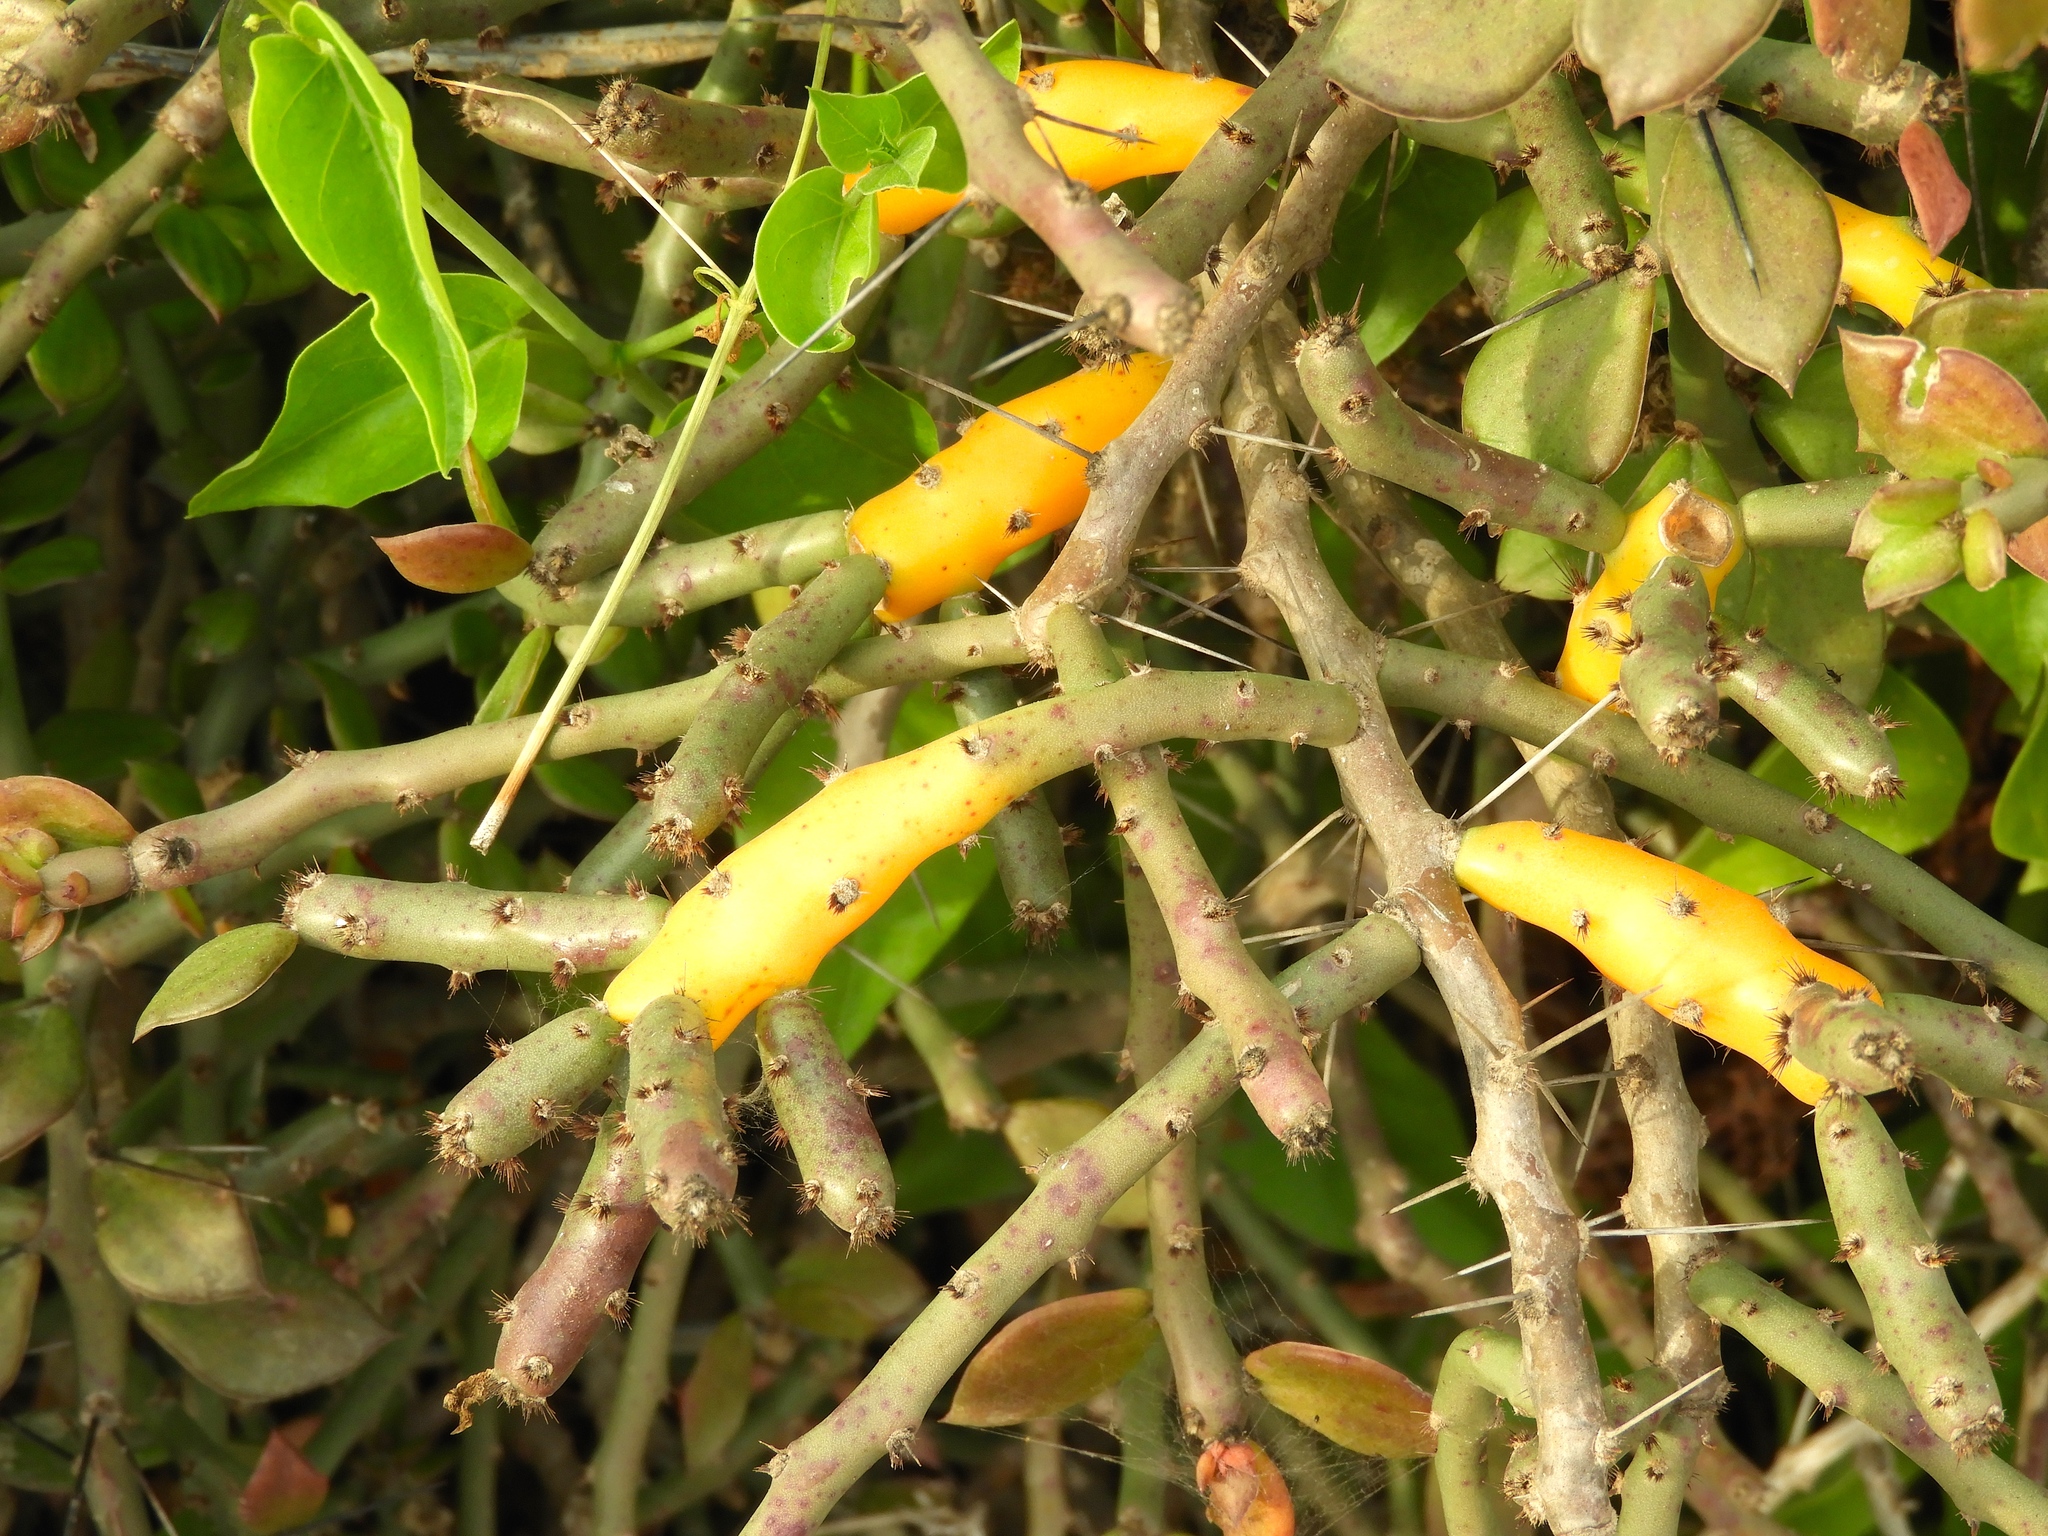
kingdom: Plantae
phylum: Tracheophyta
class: Magnoliopsida
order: Caryophyllales
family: Cactaceae
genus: Pereskiopsis
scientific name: Pereskiopsis porteri
